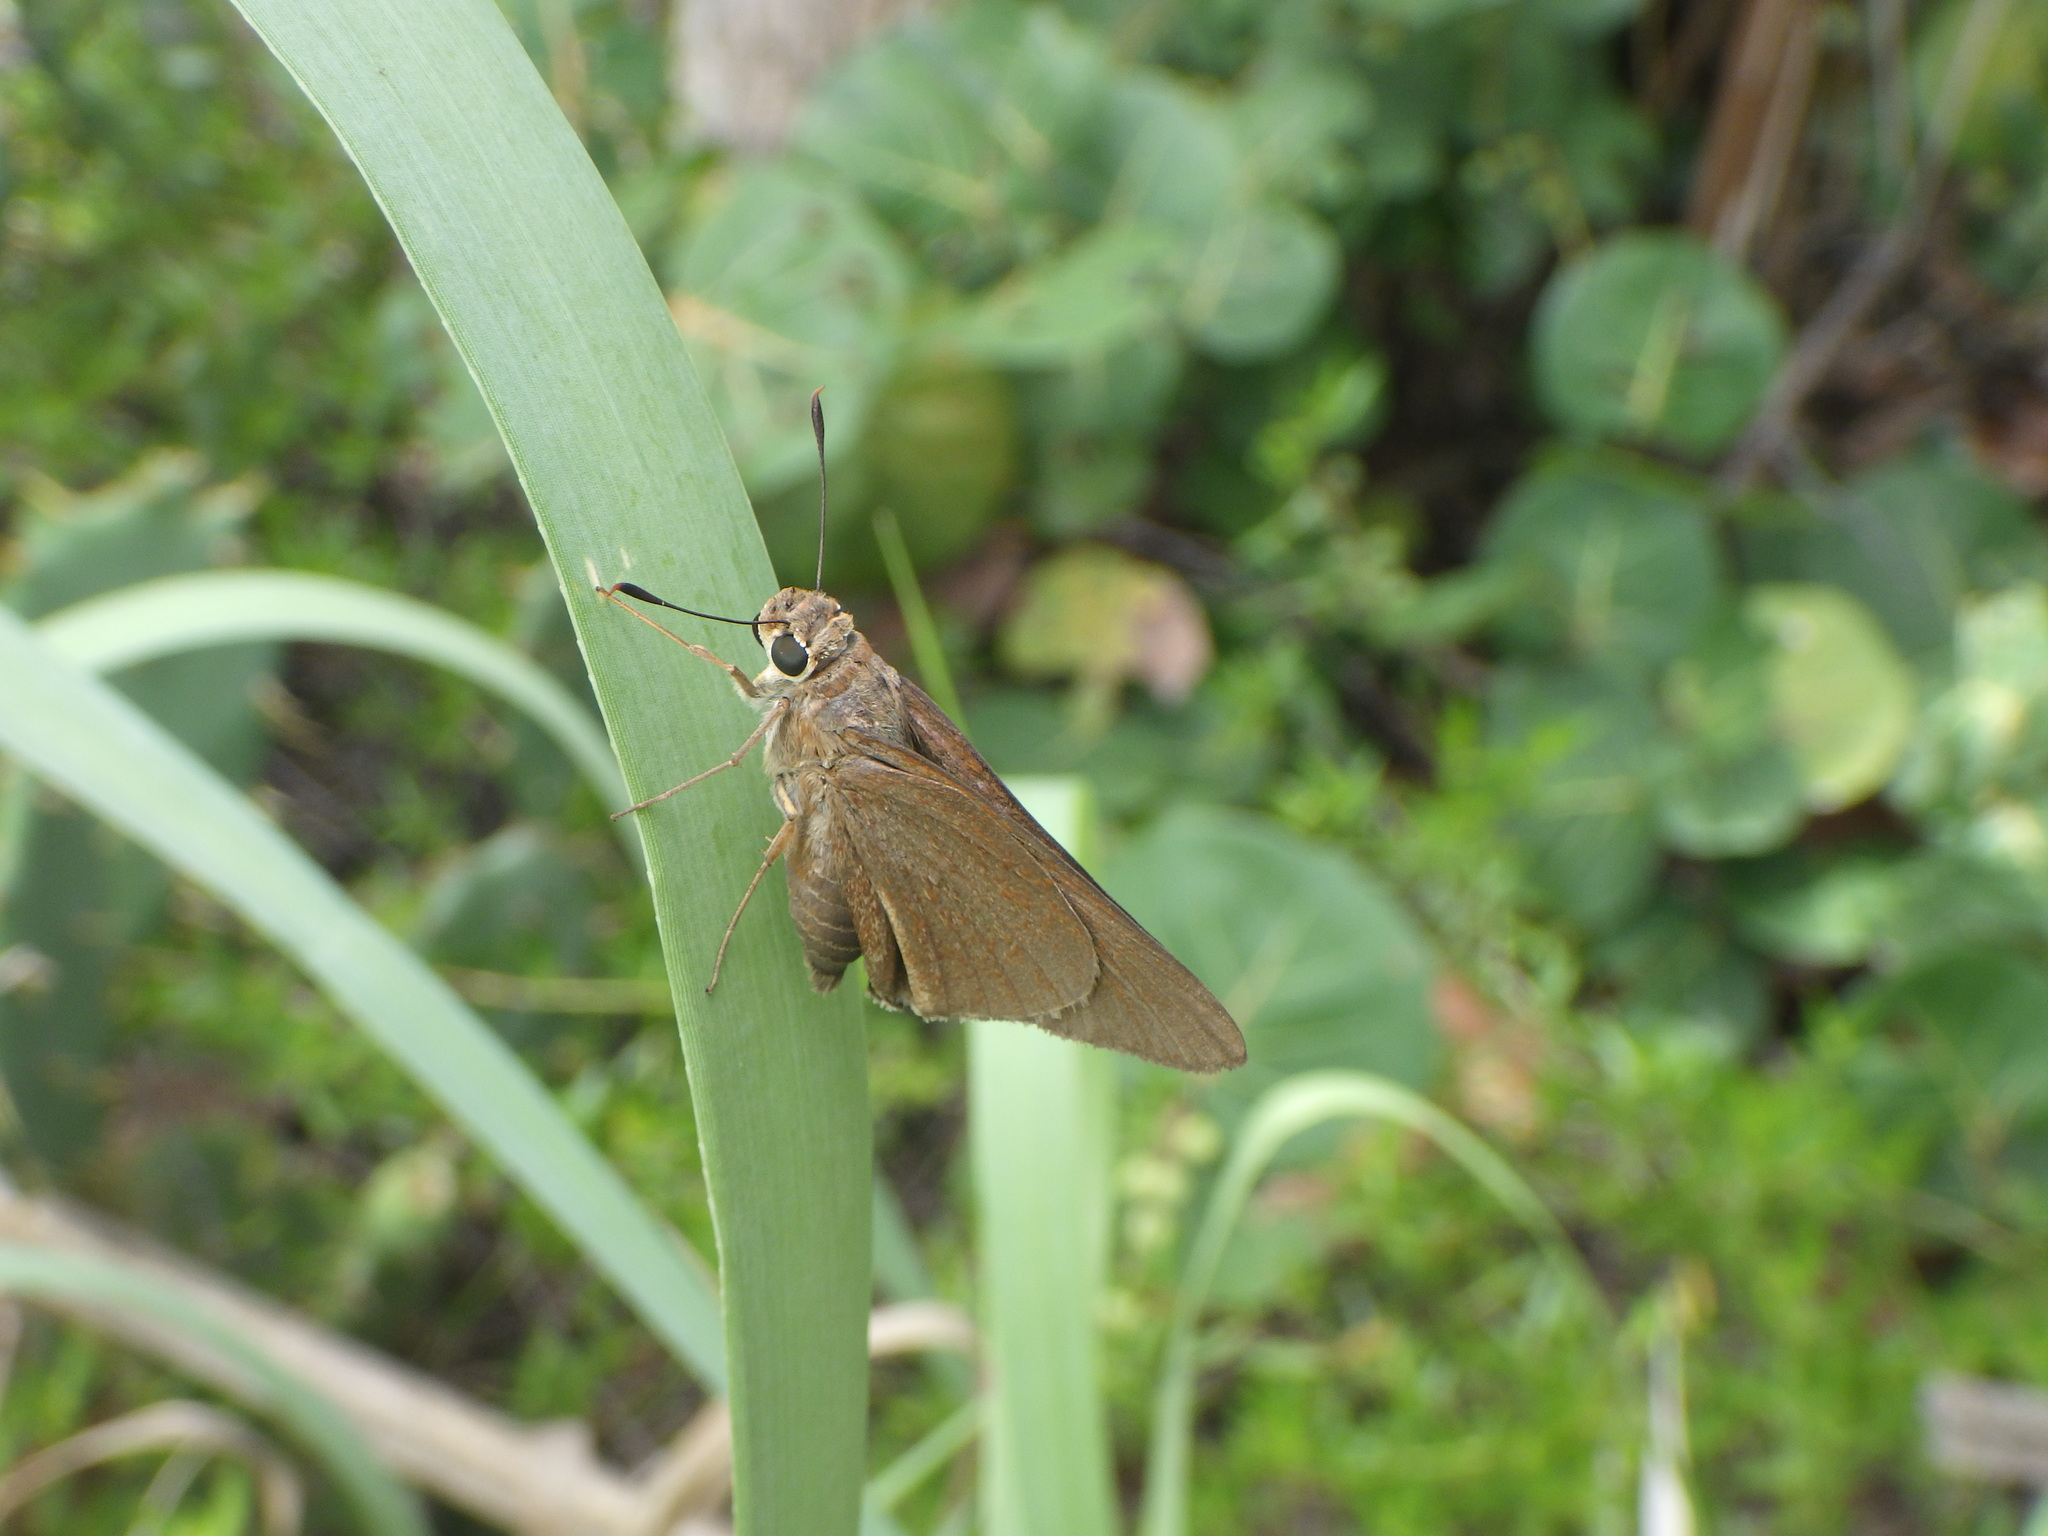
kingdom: Animalia
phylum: Arthropoda
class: Insecta
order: Lepidoptera
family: Hesperiidae
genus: Asbolis
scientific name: Asbolis capucinus
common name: Monk skipper
